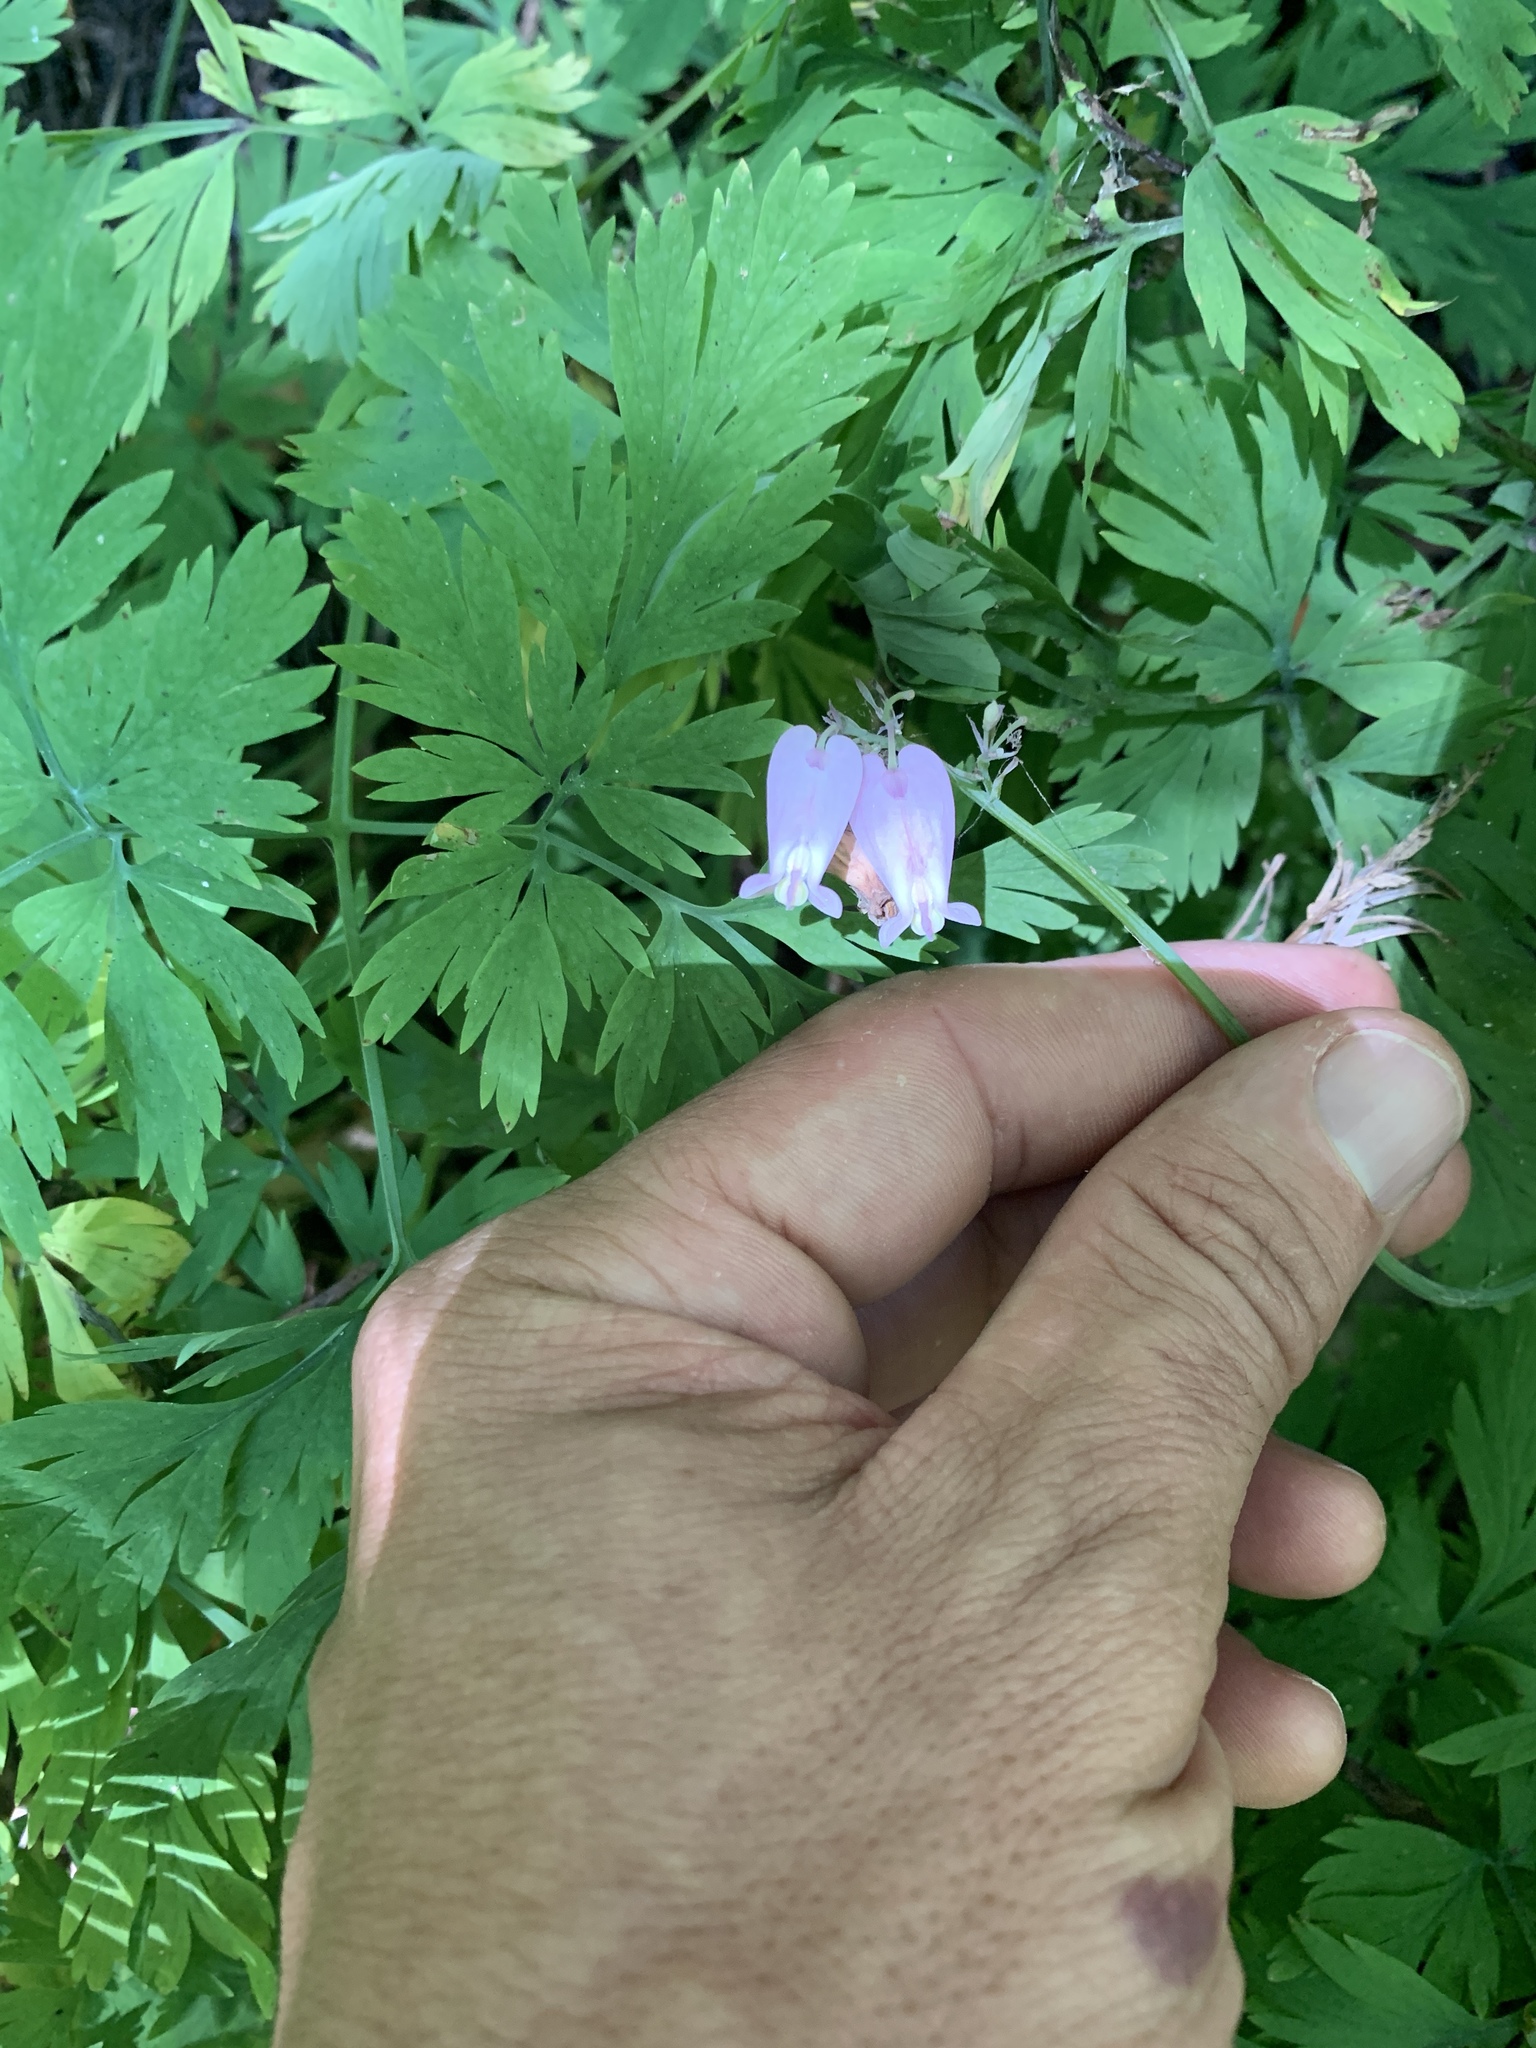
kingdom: Plantae
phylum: Tracheophyta
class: Magnoliopsida
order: Ranunculales
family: Papaveraceae
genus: Dicentra
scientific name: Dicentra formosa
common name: Bleeding-heart
